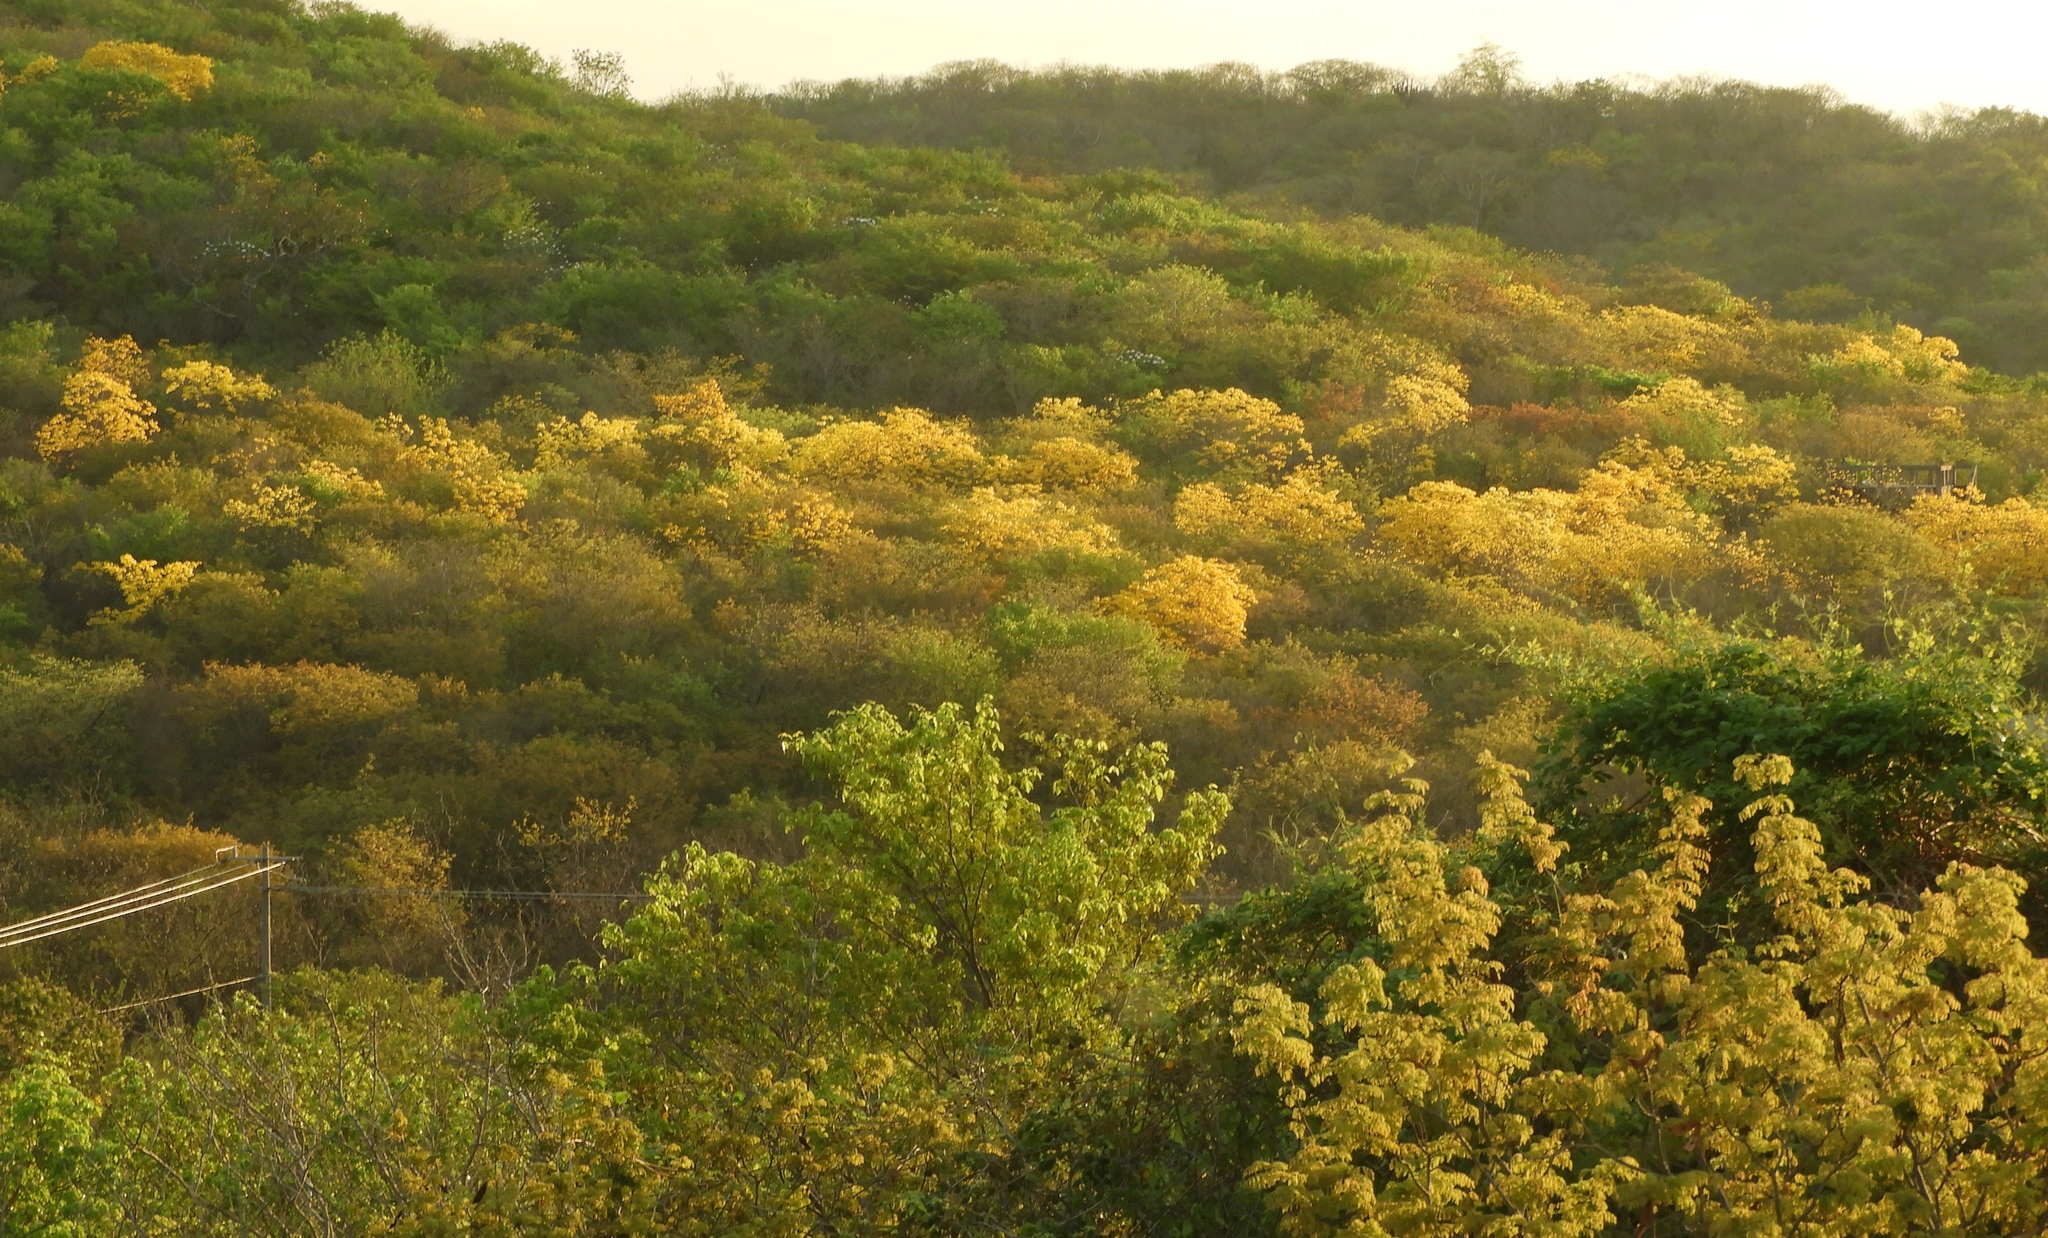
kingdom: Plantae
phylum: Tracheophyta
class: Magnoliopsida
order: Lamiales
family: Bignoniaceae
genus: Handroanthus
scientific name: Handroanthus chrysanthus
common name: Trumpet trees
